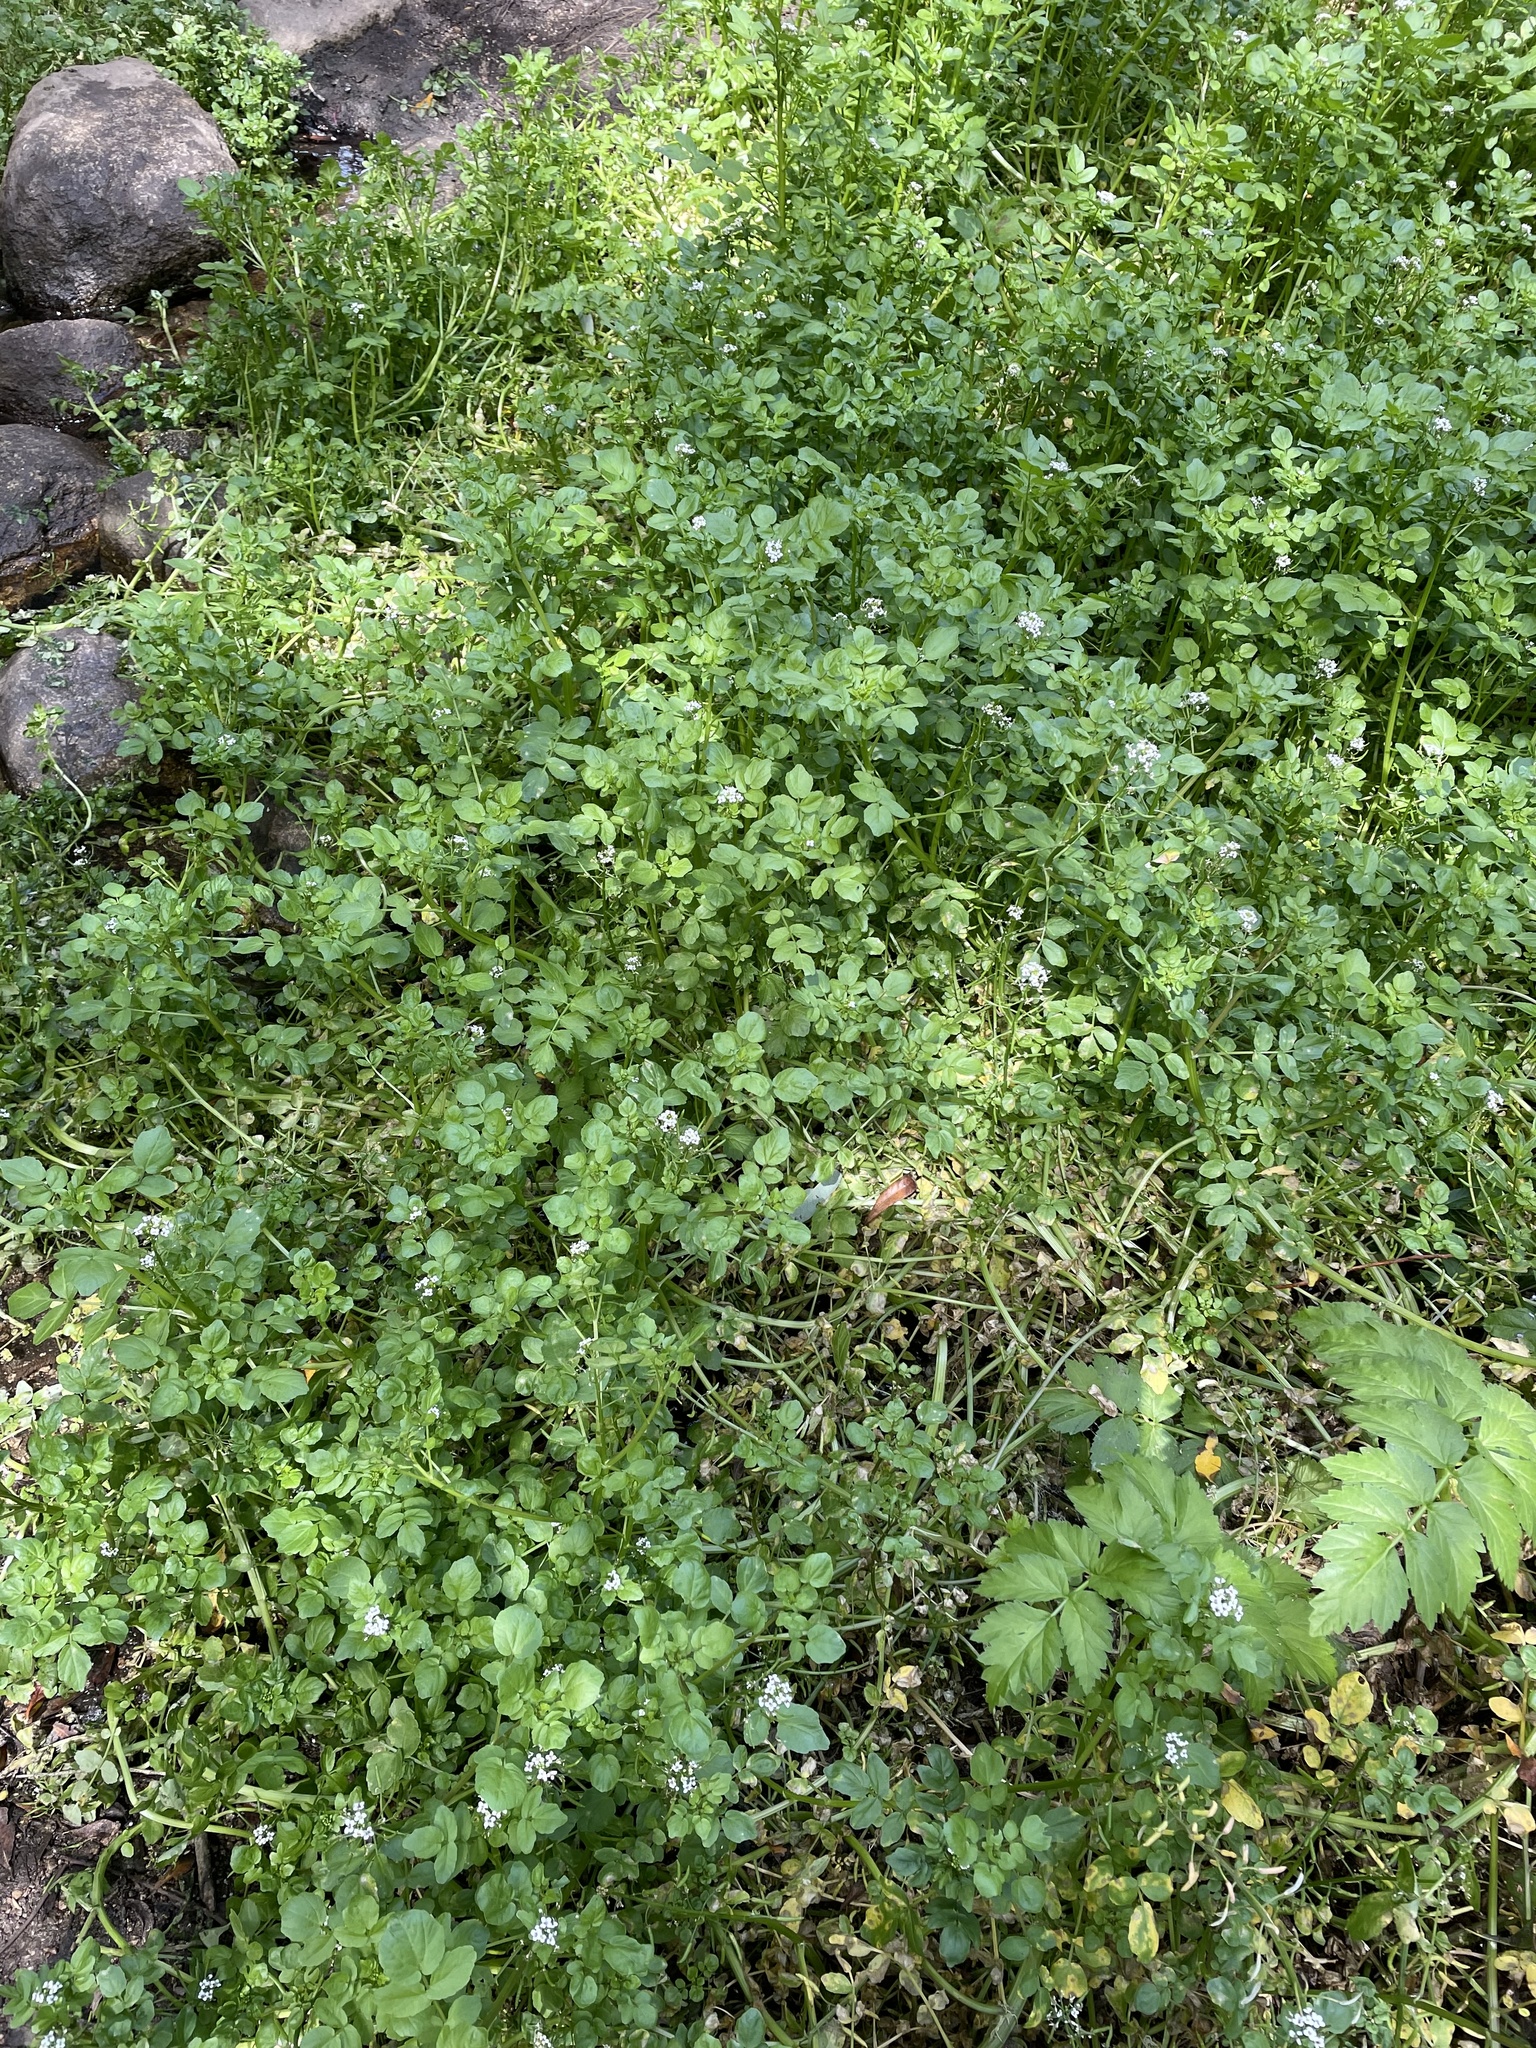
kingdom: Plantae
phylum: Tracheophyta
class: Magnoliopsida
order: Brassicales
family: Brassicaceae
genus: Nasturtium
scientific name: Nasturtium officinale
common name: Watercress
